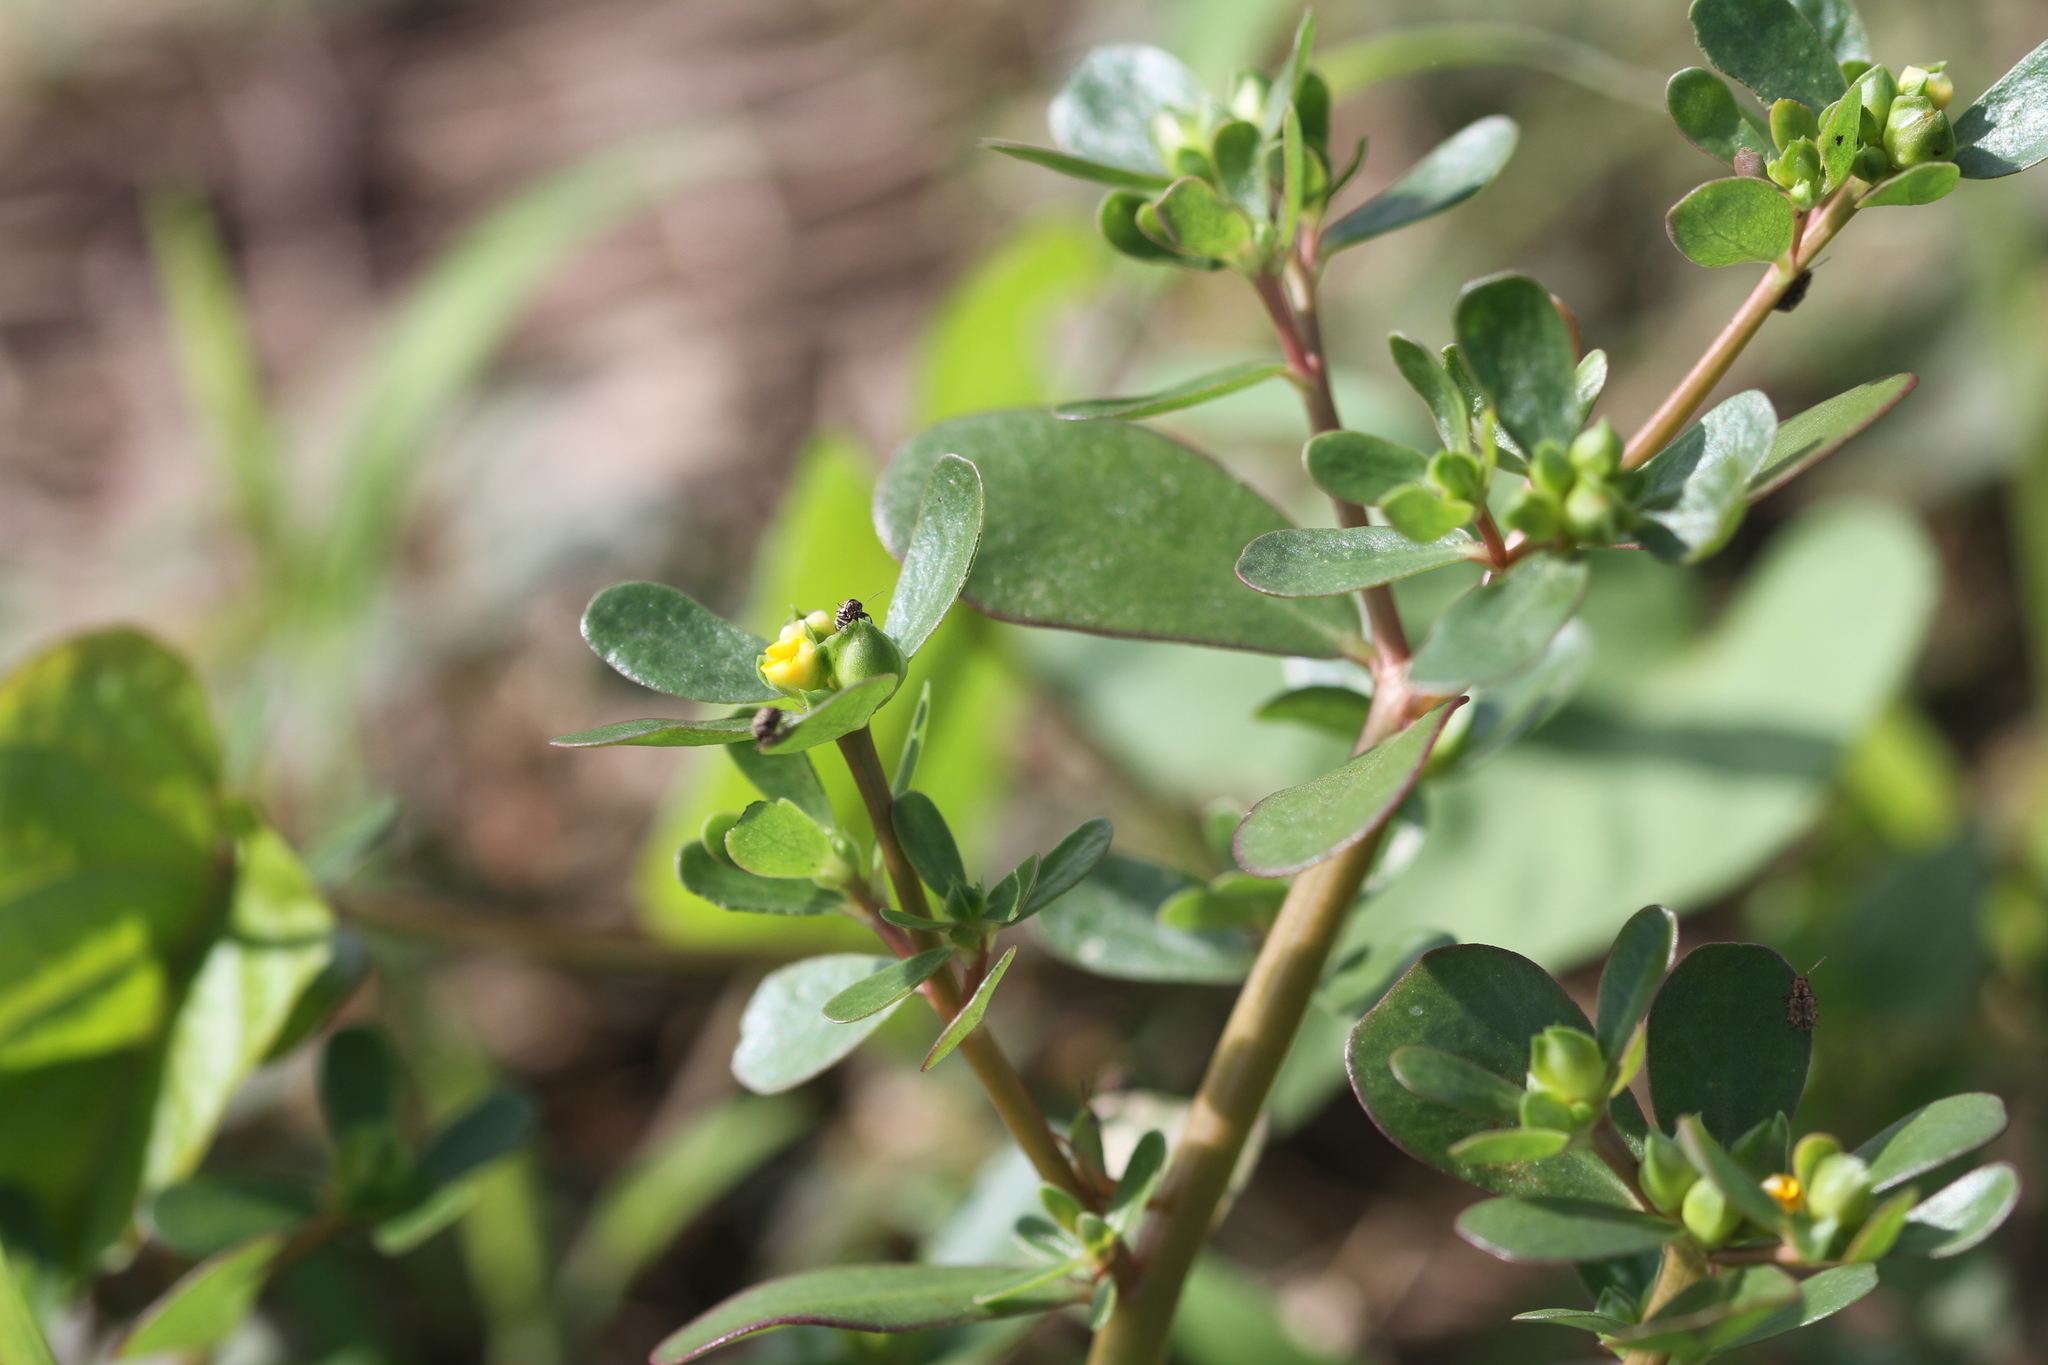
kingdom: Plantae
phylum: Tracheophyta
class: Magnoliopsida
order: Caryophyllales
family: Portulacaceae
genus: Portulaca
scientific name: Portulaca oleracea
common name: Common purslane
